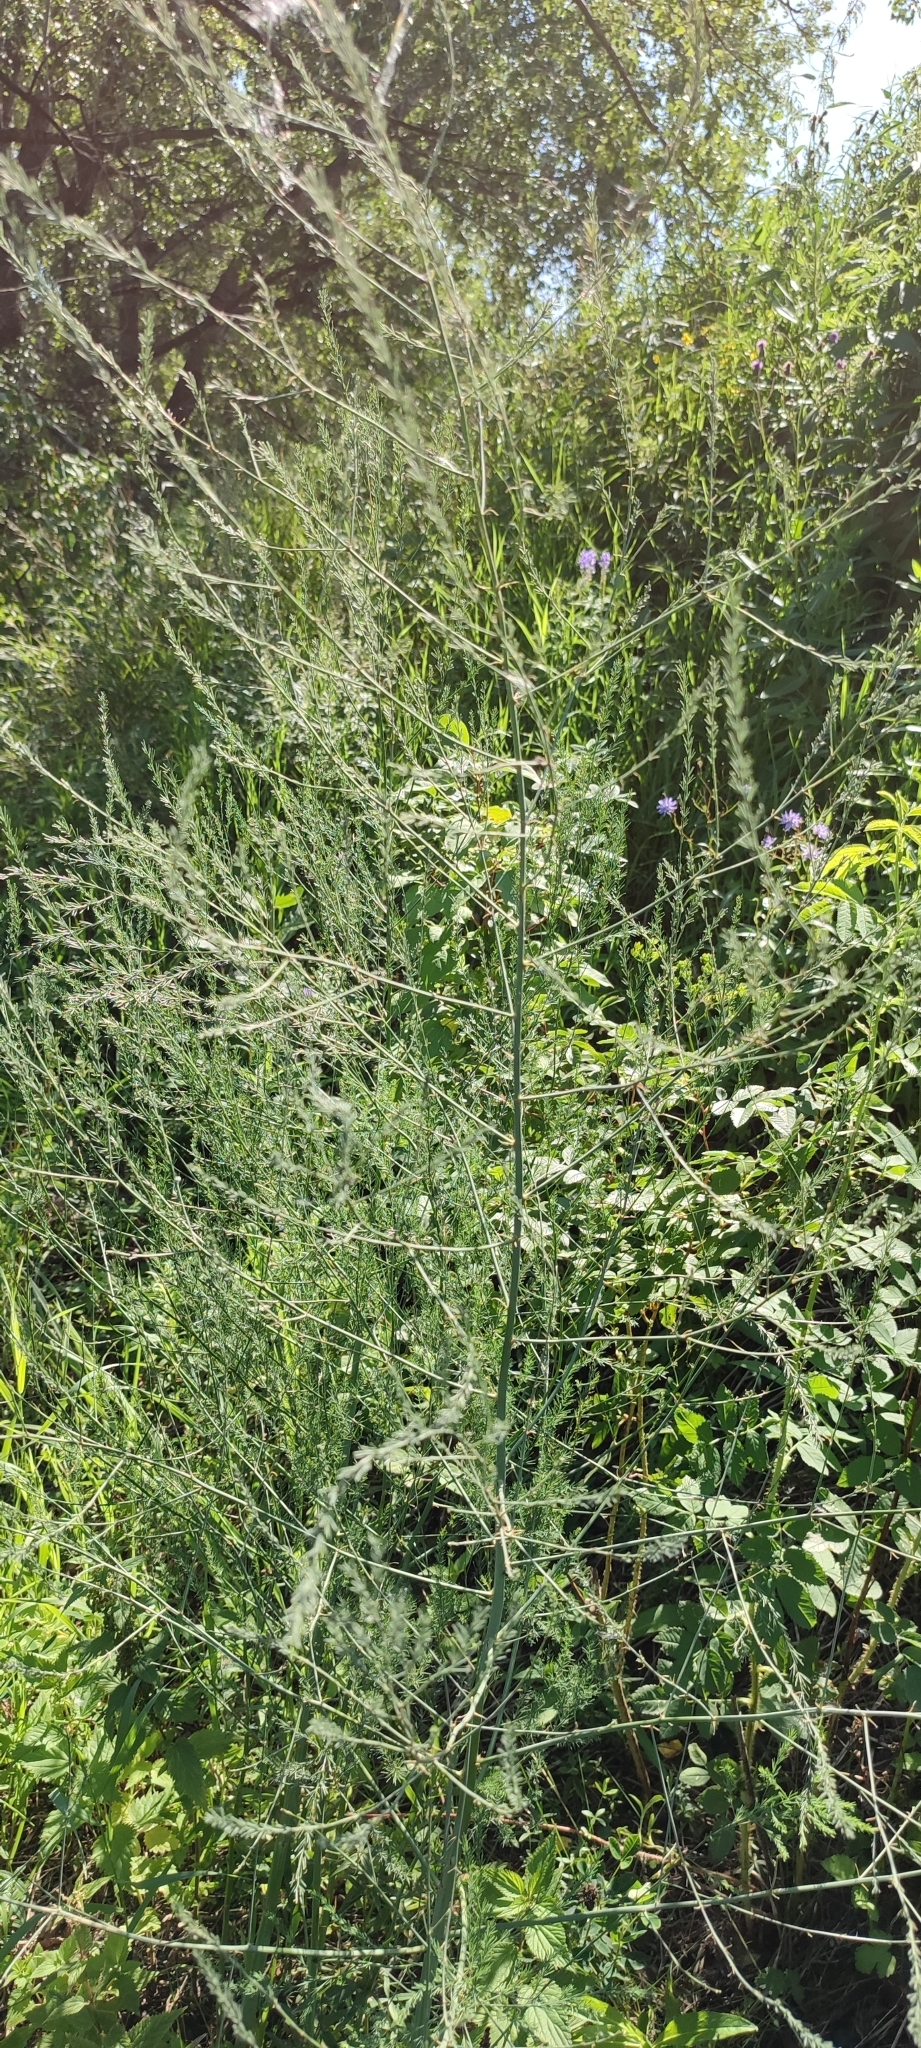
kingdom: Plantae
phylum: Tracheophyta
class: Liliopsida
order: Asparagales
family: Asparagaceae
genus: Asparagus
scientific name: Asparagus officinalis
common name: Garden asparagus
